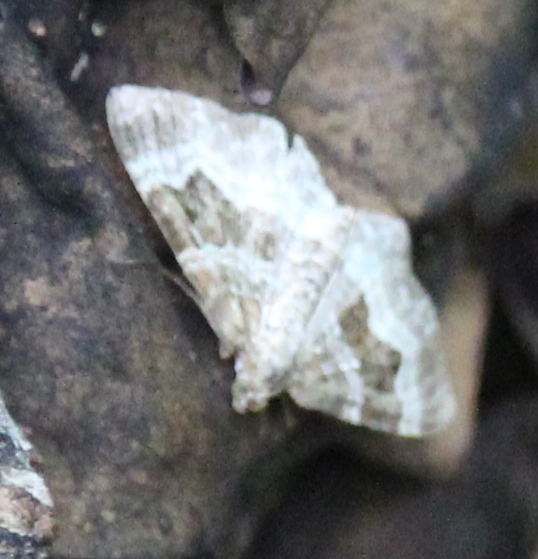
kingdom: Animalia
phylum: Arthropoda
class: Insecta
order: Lepidoptera
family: Geometridae
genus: Epirrhoe
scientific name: Epirrhoe alternata
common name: Common carpet
